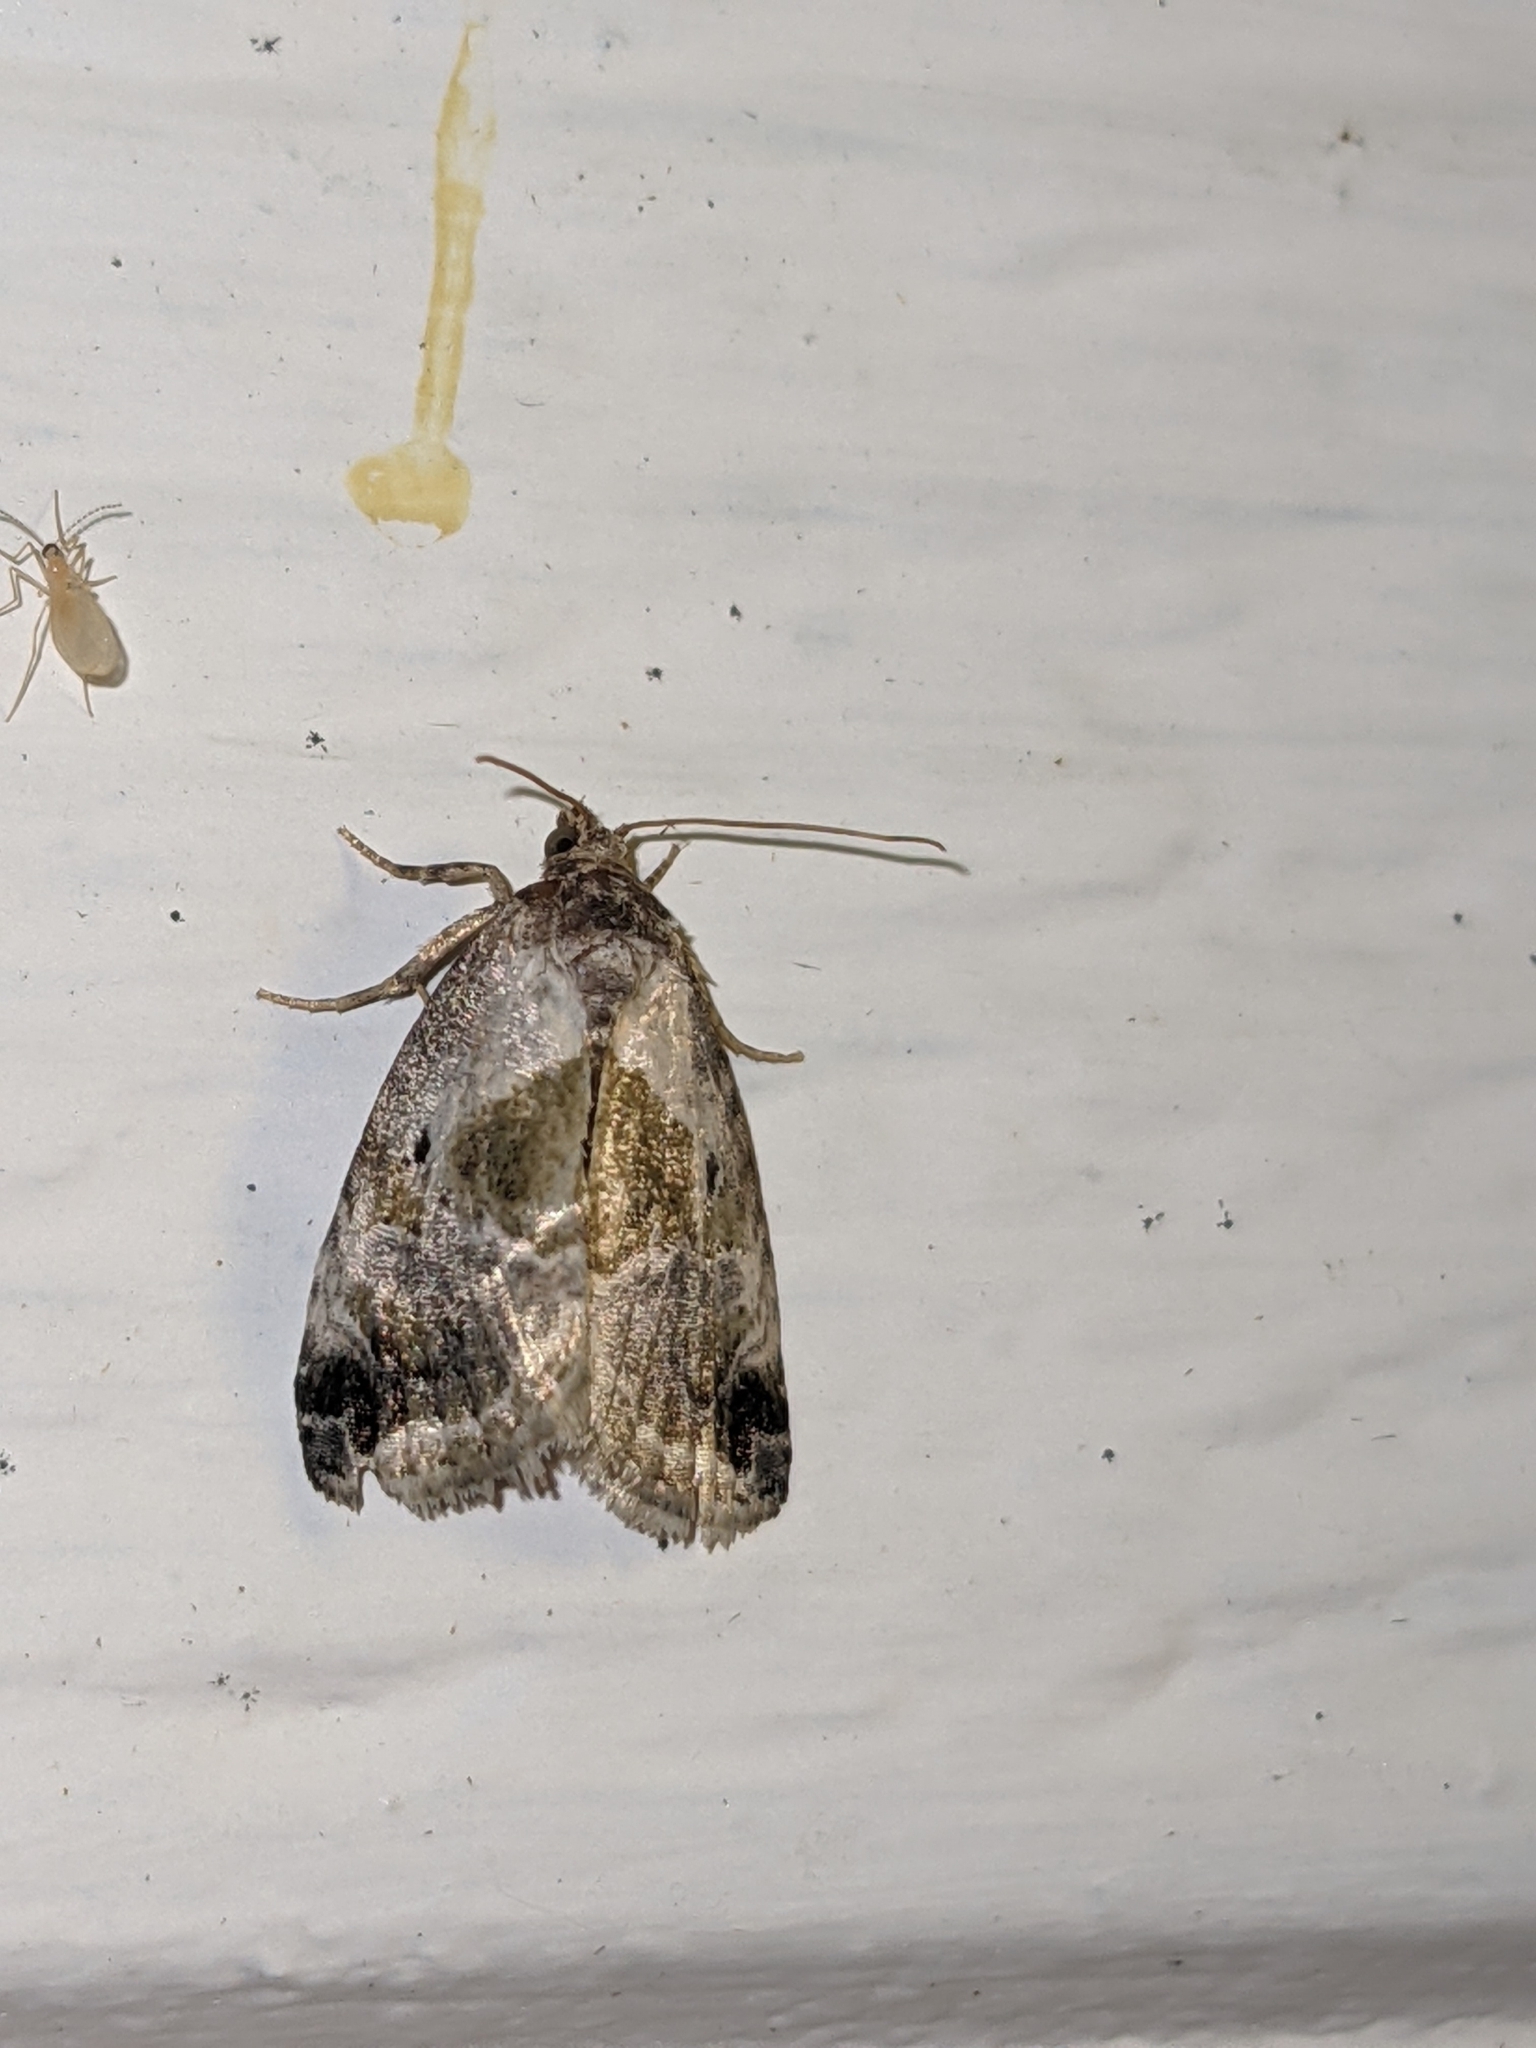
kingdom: Animalia
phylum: Arthropoda
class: Insecta
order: Lepidoptera
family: Noctuidae
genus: Maliattha
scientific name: Maliattha synochitis
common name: Black-dotted glyph
